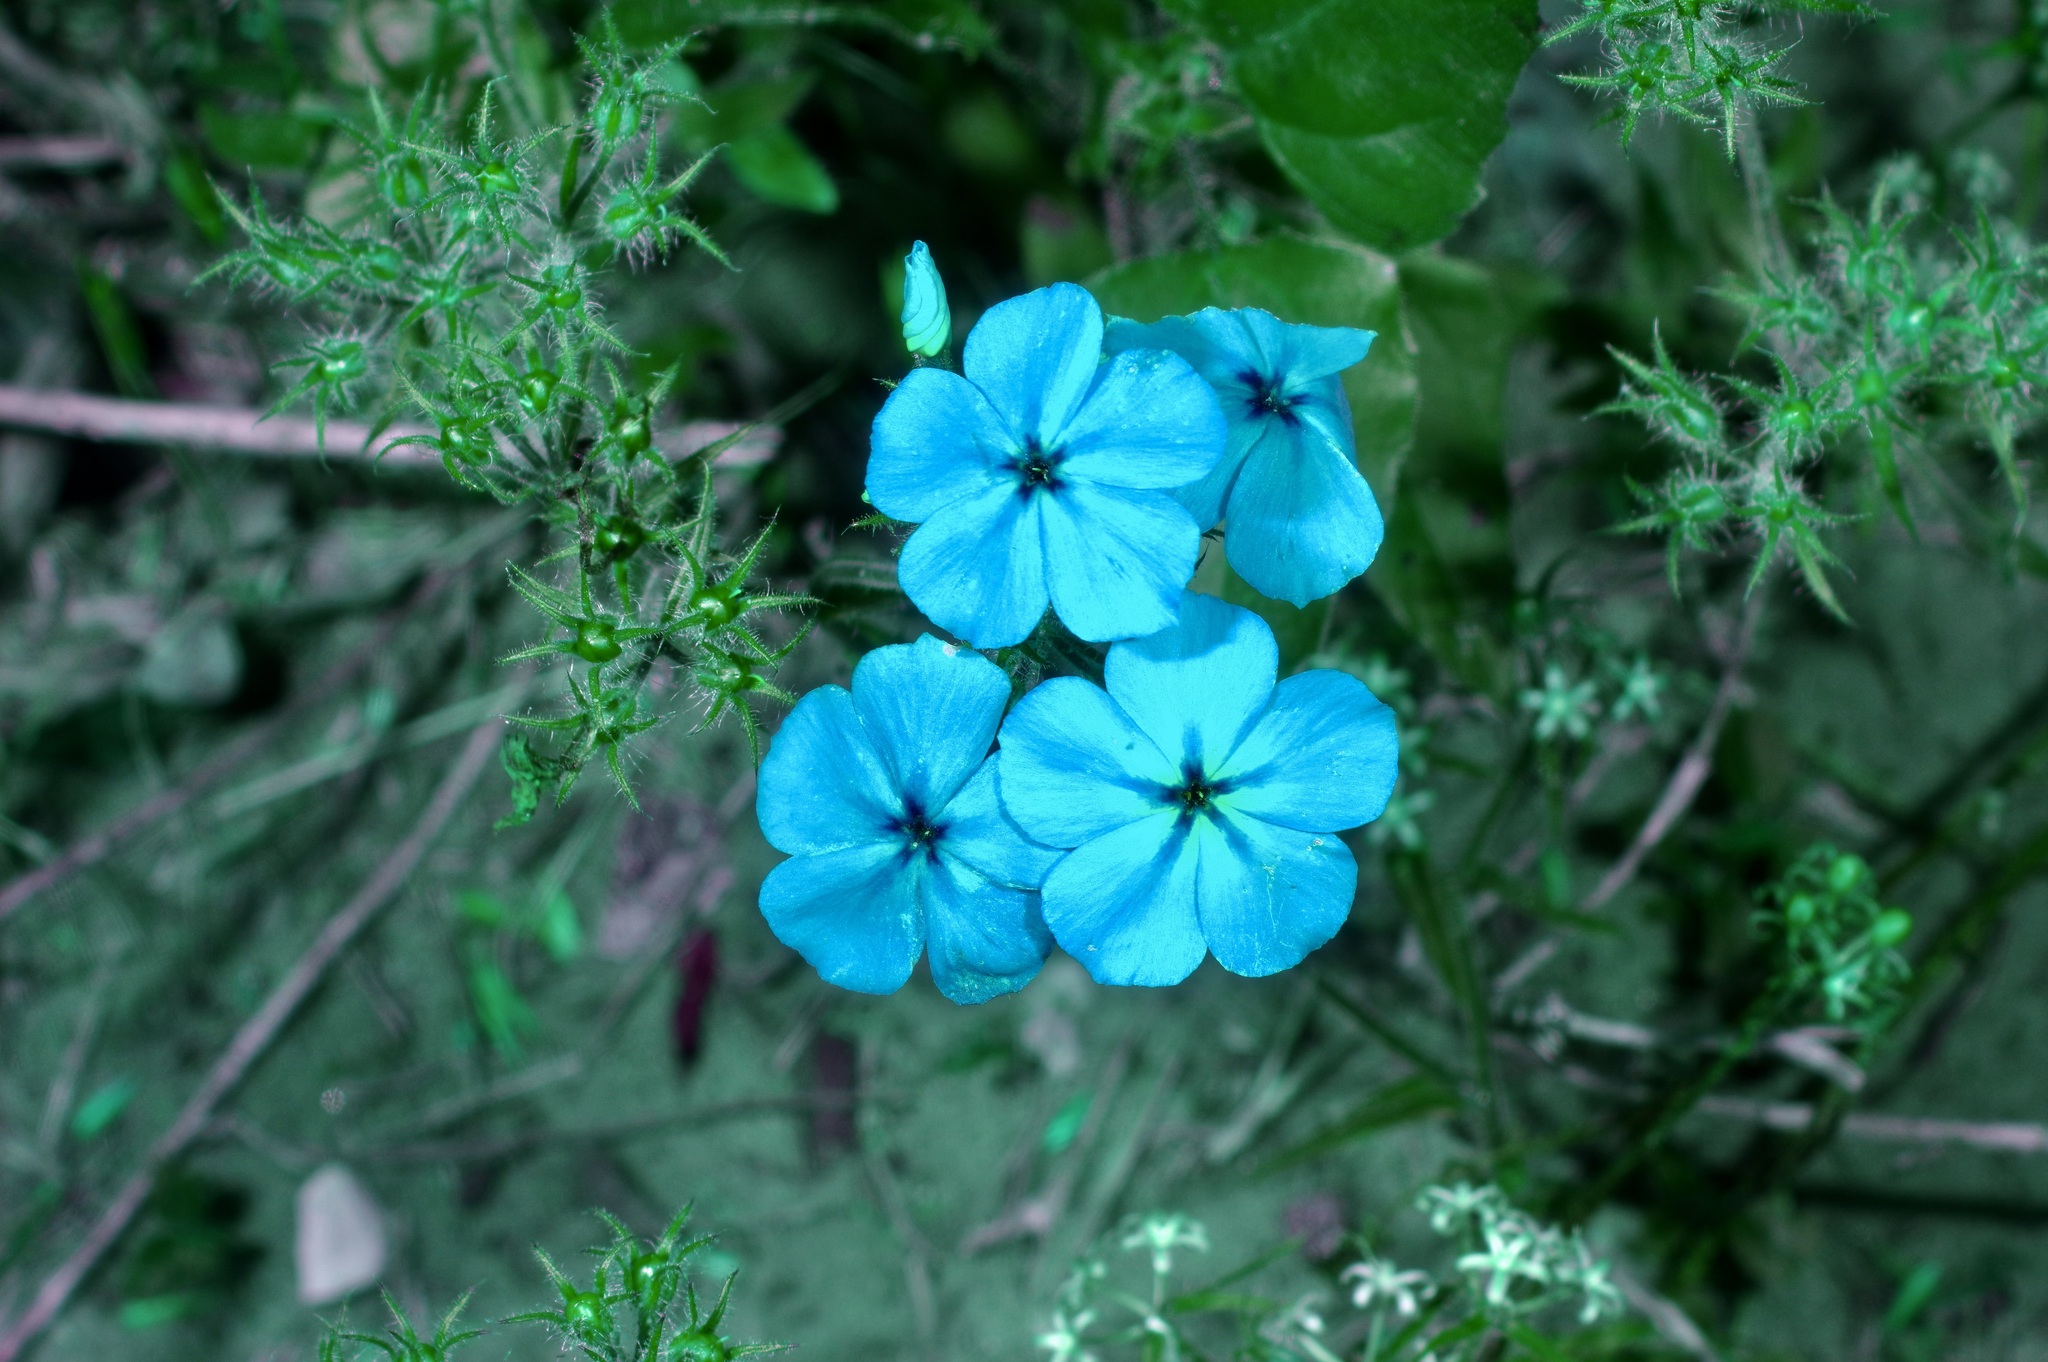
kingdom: Plantae
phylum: Tracheophyta
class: Magnoliopsida
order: Ericales
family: Polemoniaceae
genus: Phlox
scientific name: Phlox drummondii
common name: Drummond's phlox
